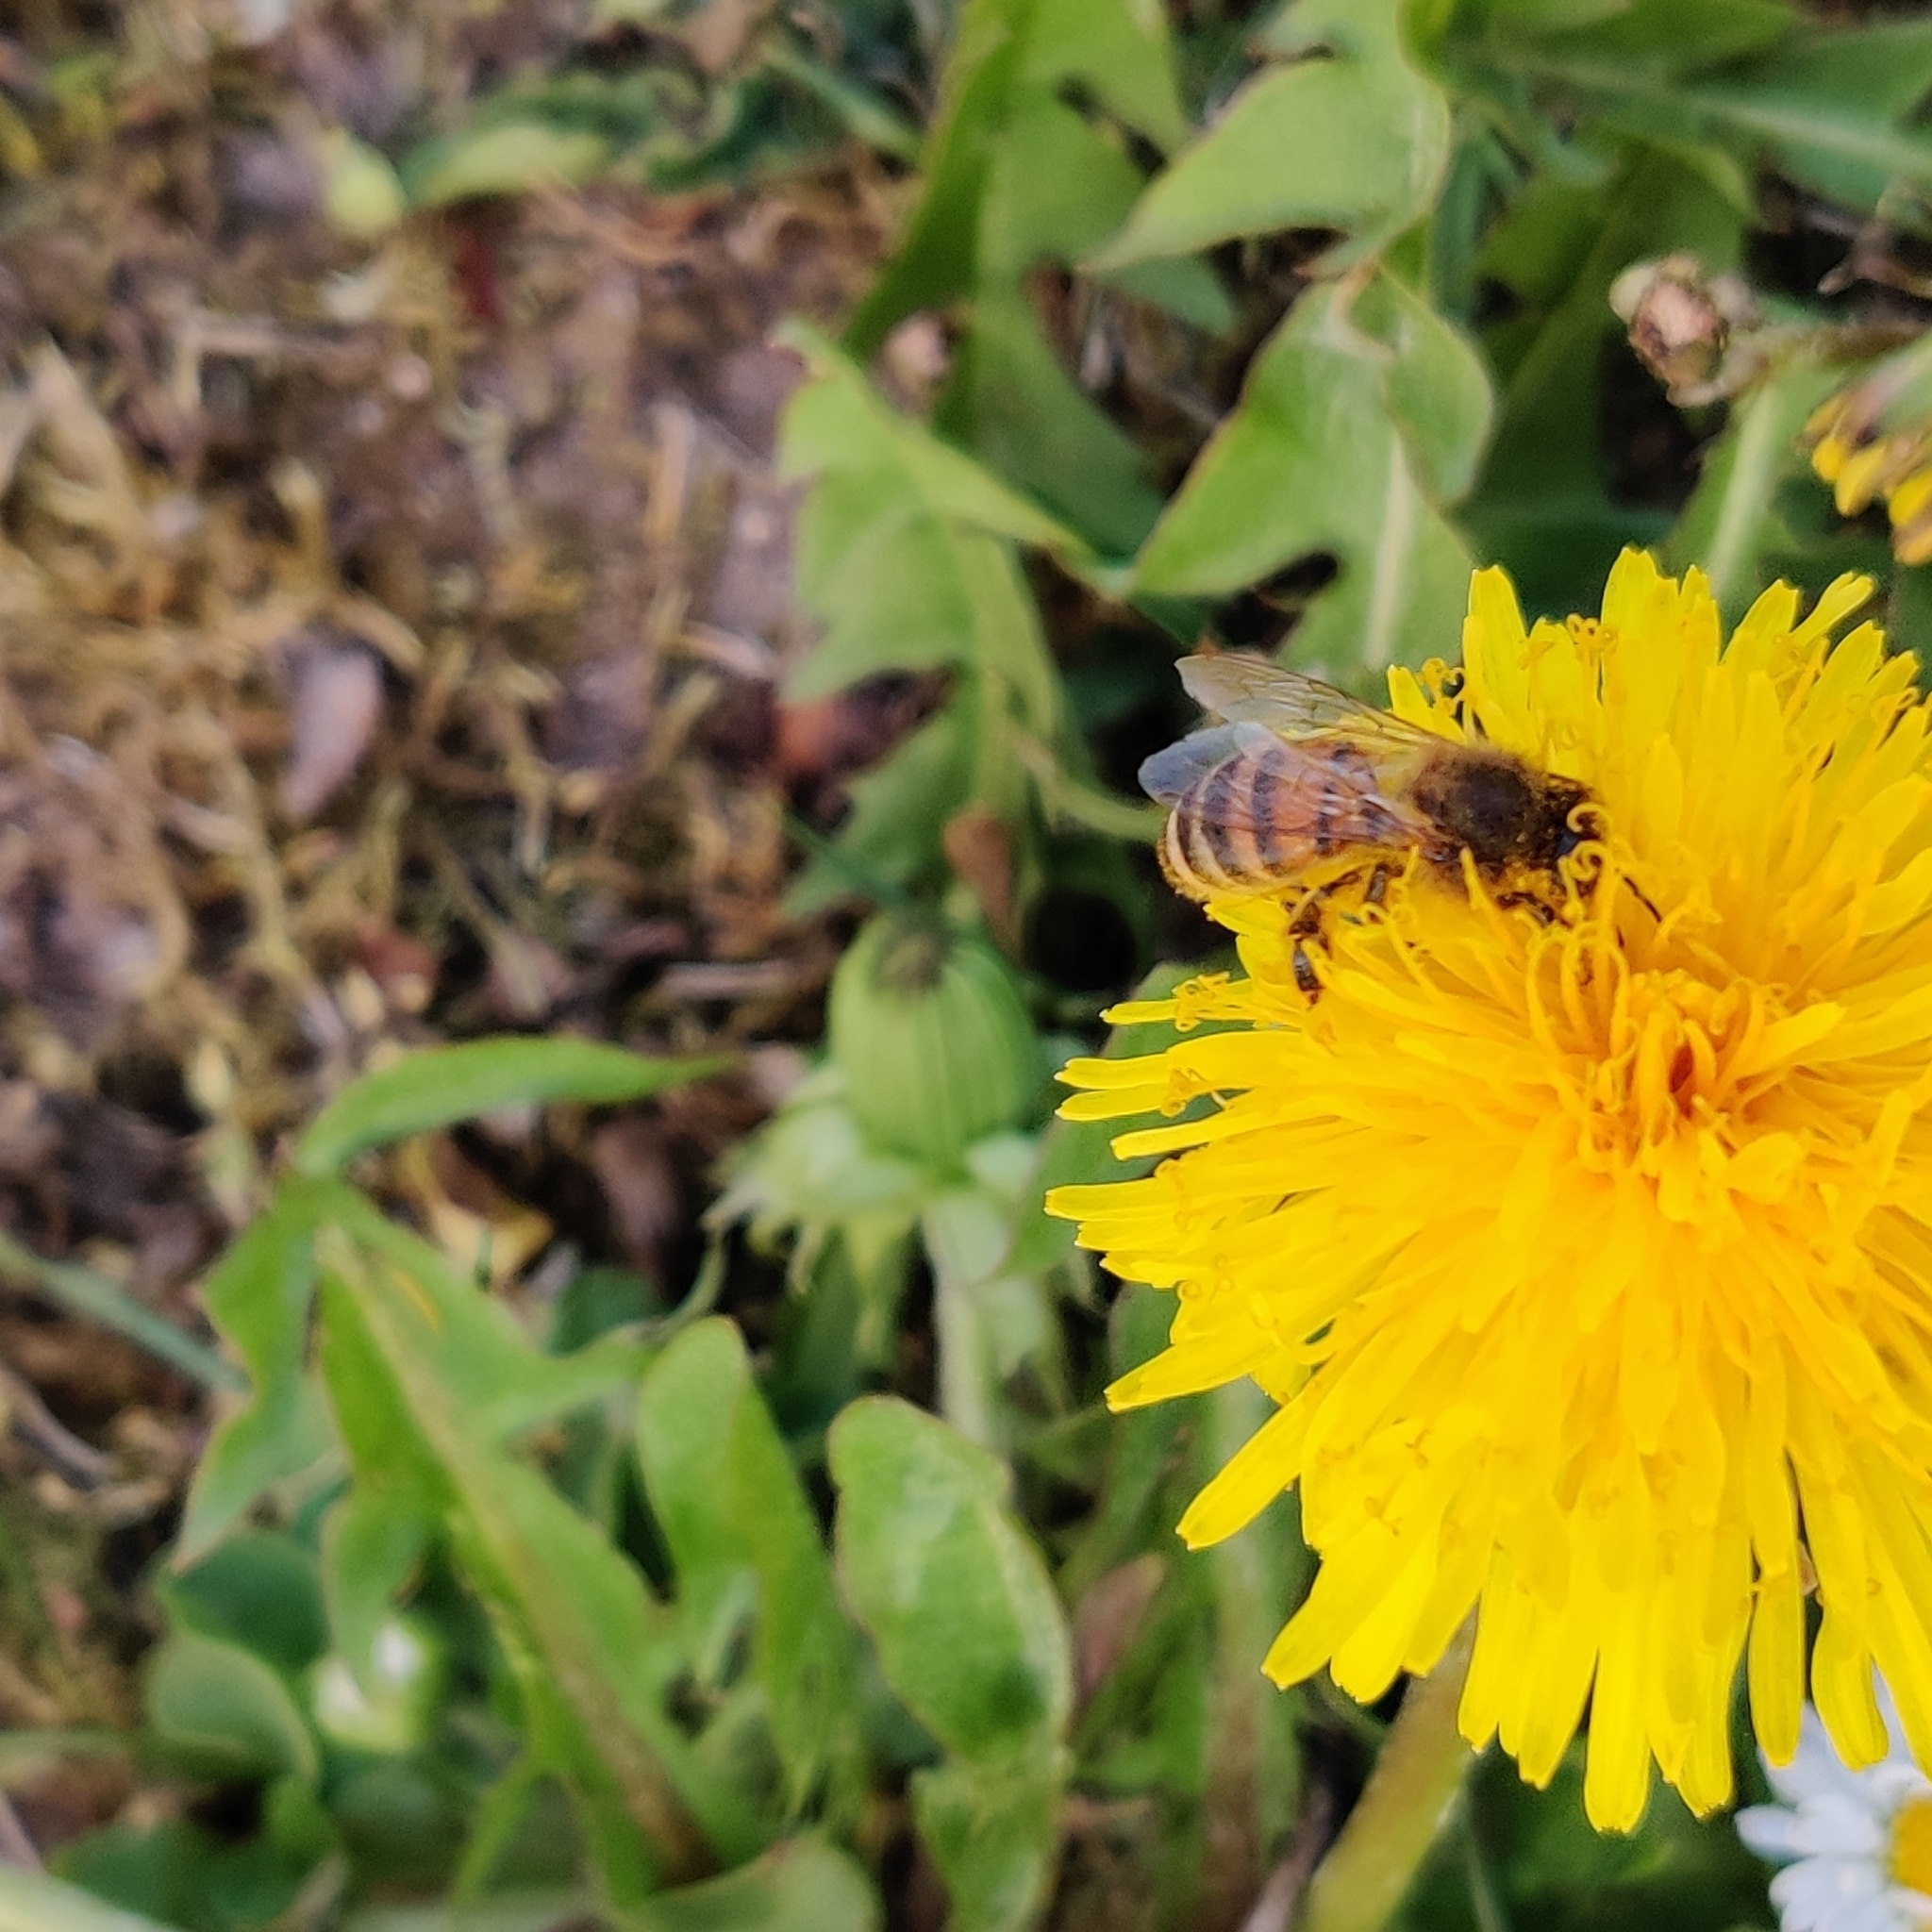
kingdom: Animalia
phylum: Arthropoda
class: Insecta
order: Hymenoptera
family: Apidae
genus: Apis
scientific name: Apis mellifera
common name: Honey bee
